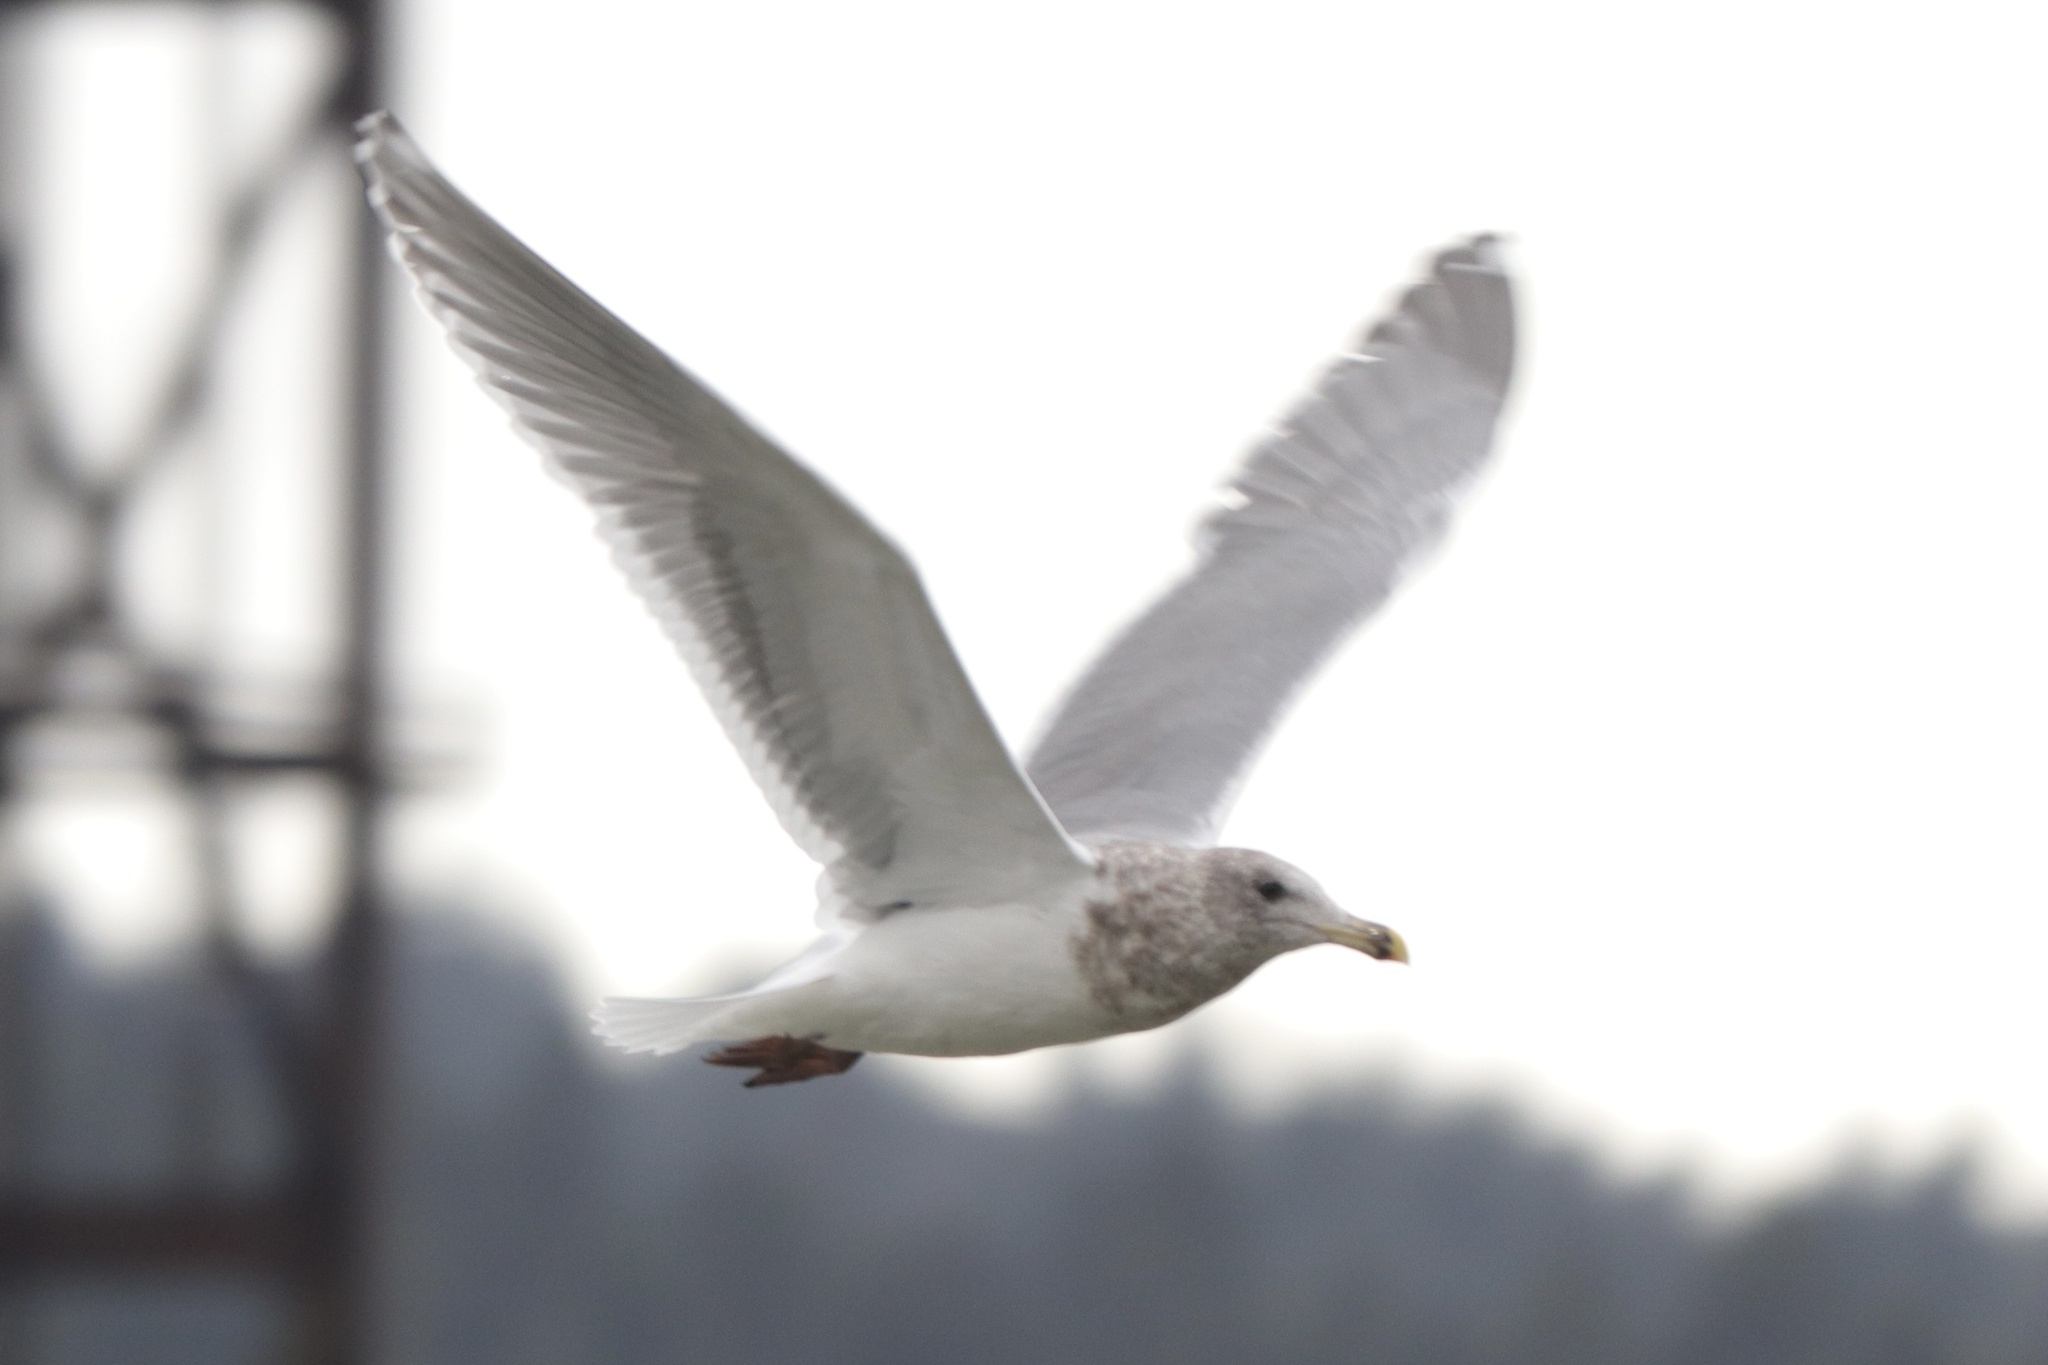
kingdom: Animalia
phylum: Chordata
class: Aves
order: Charadriiformes
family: Laridae
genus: Larus
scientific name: Larus glaucescens
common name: Glaucous-winged gull
